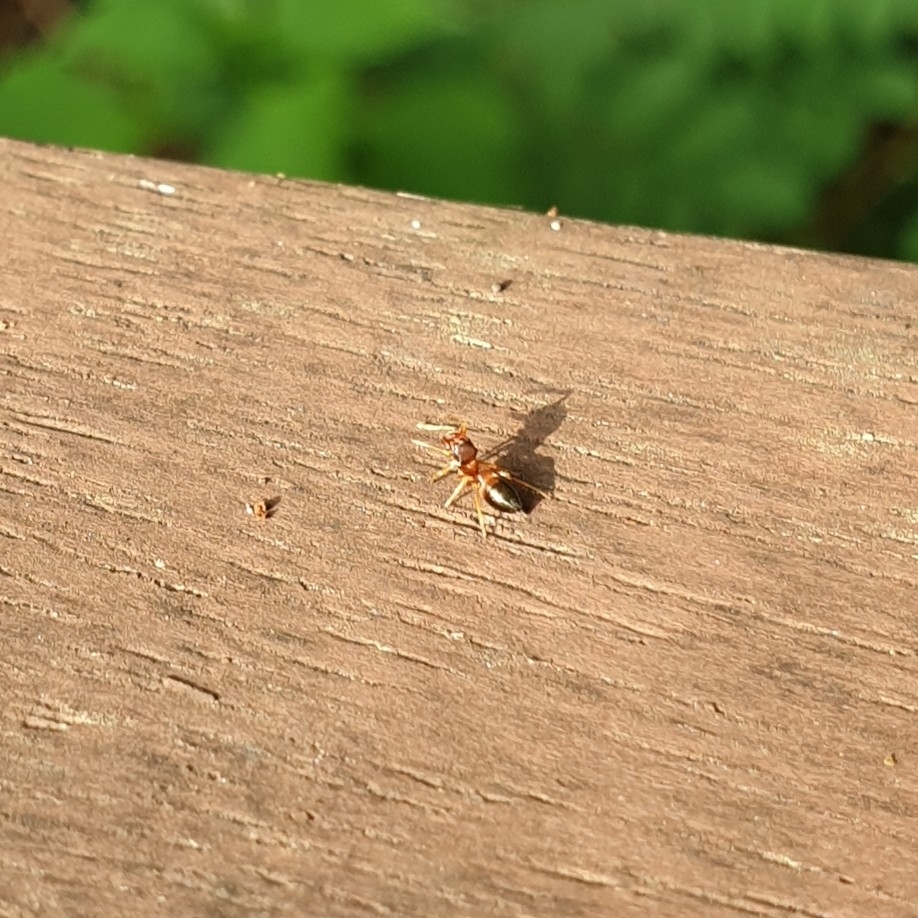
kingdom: Animalia
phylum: Arthropoda
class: Arachnida
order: Araneae
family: Salticidae
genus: Myrmarachne
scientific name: Myrmarachne formicaria
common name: Ant mimic jumping spider
